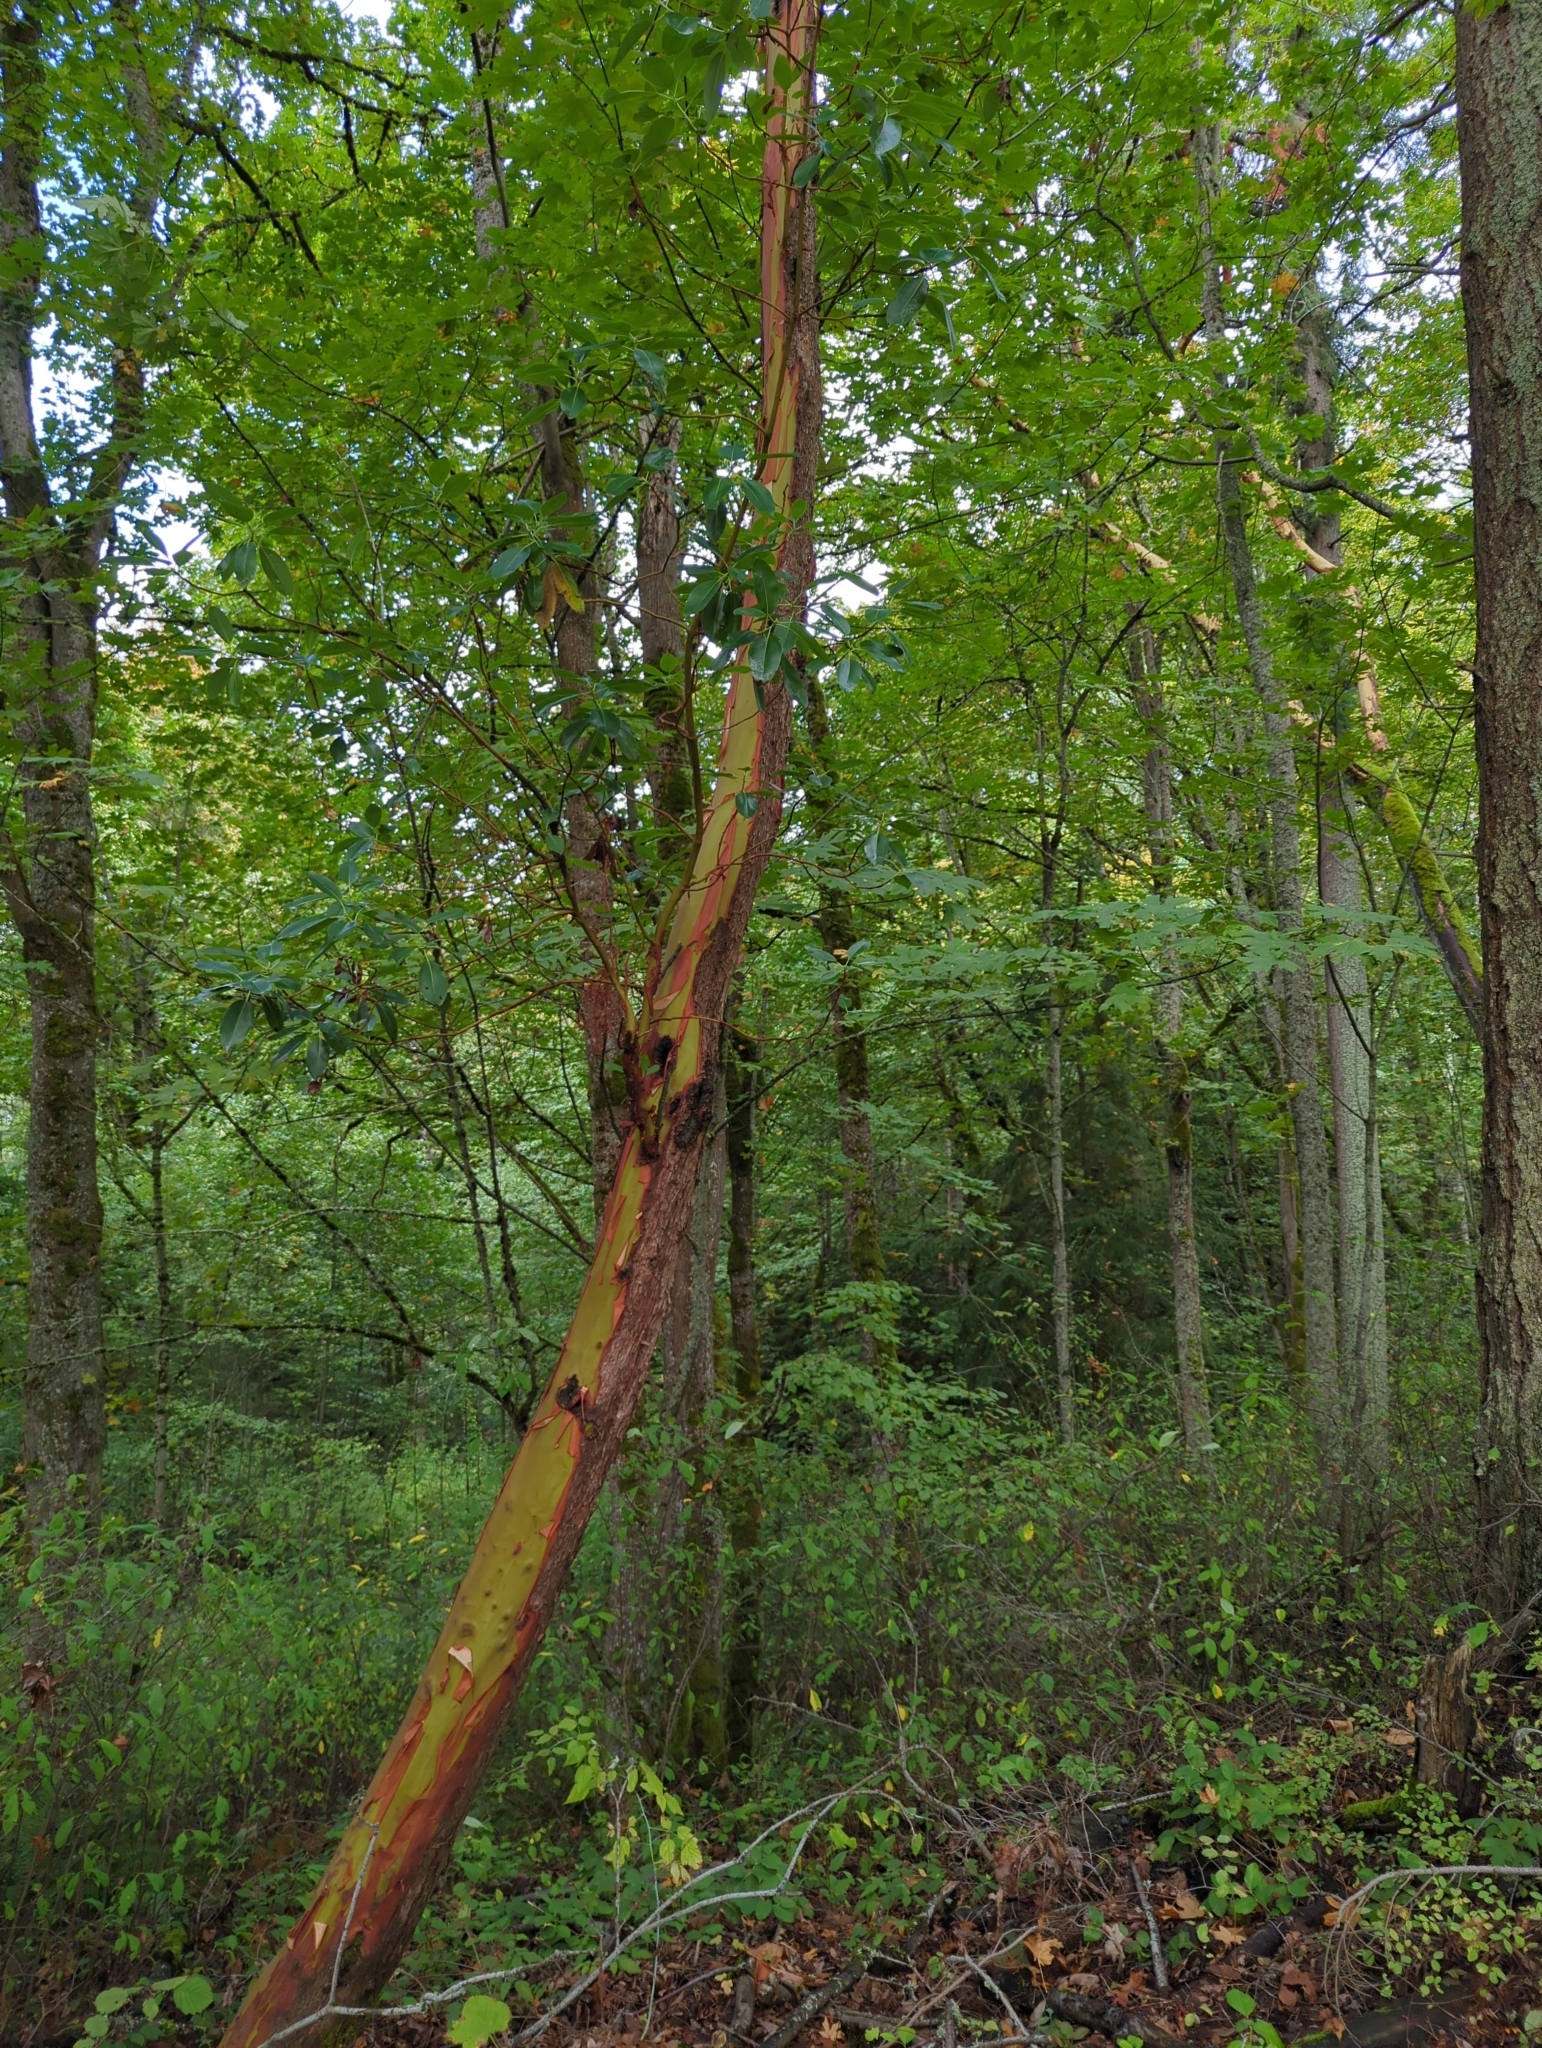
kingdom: Plantae
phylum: Tracheophyta
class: Magnoliopsida
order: Ericales
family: Ericaceae
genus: Arbutus
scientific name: Arbutus menziesii
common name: Pacific madrone
